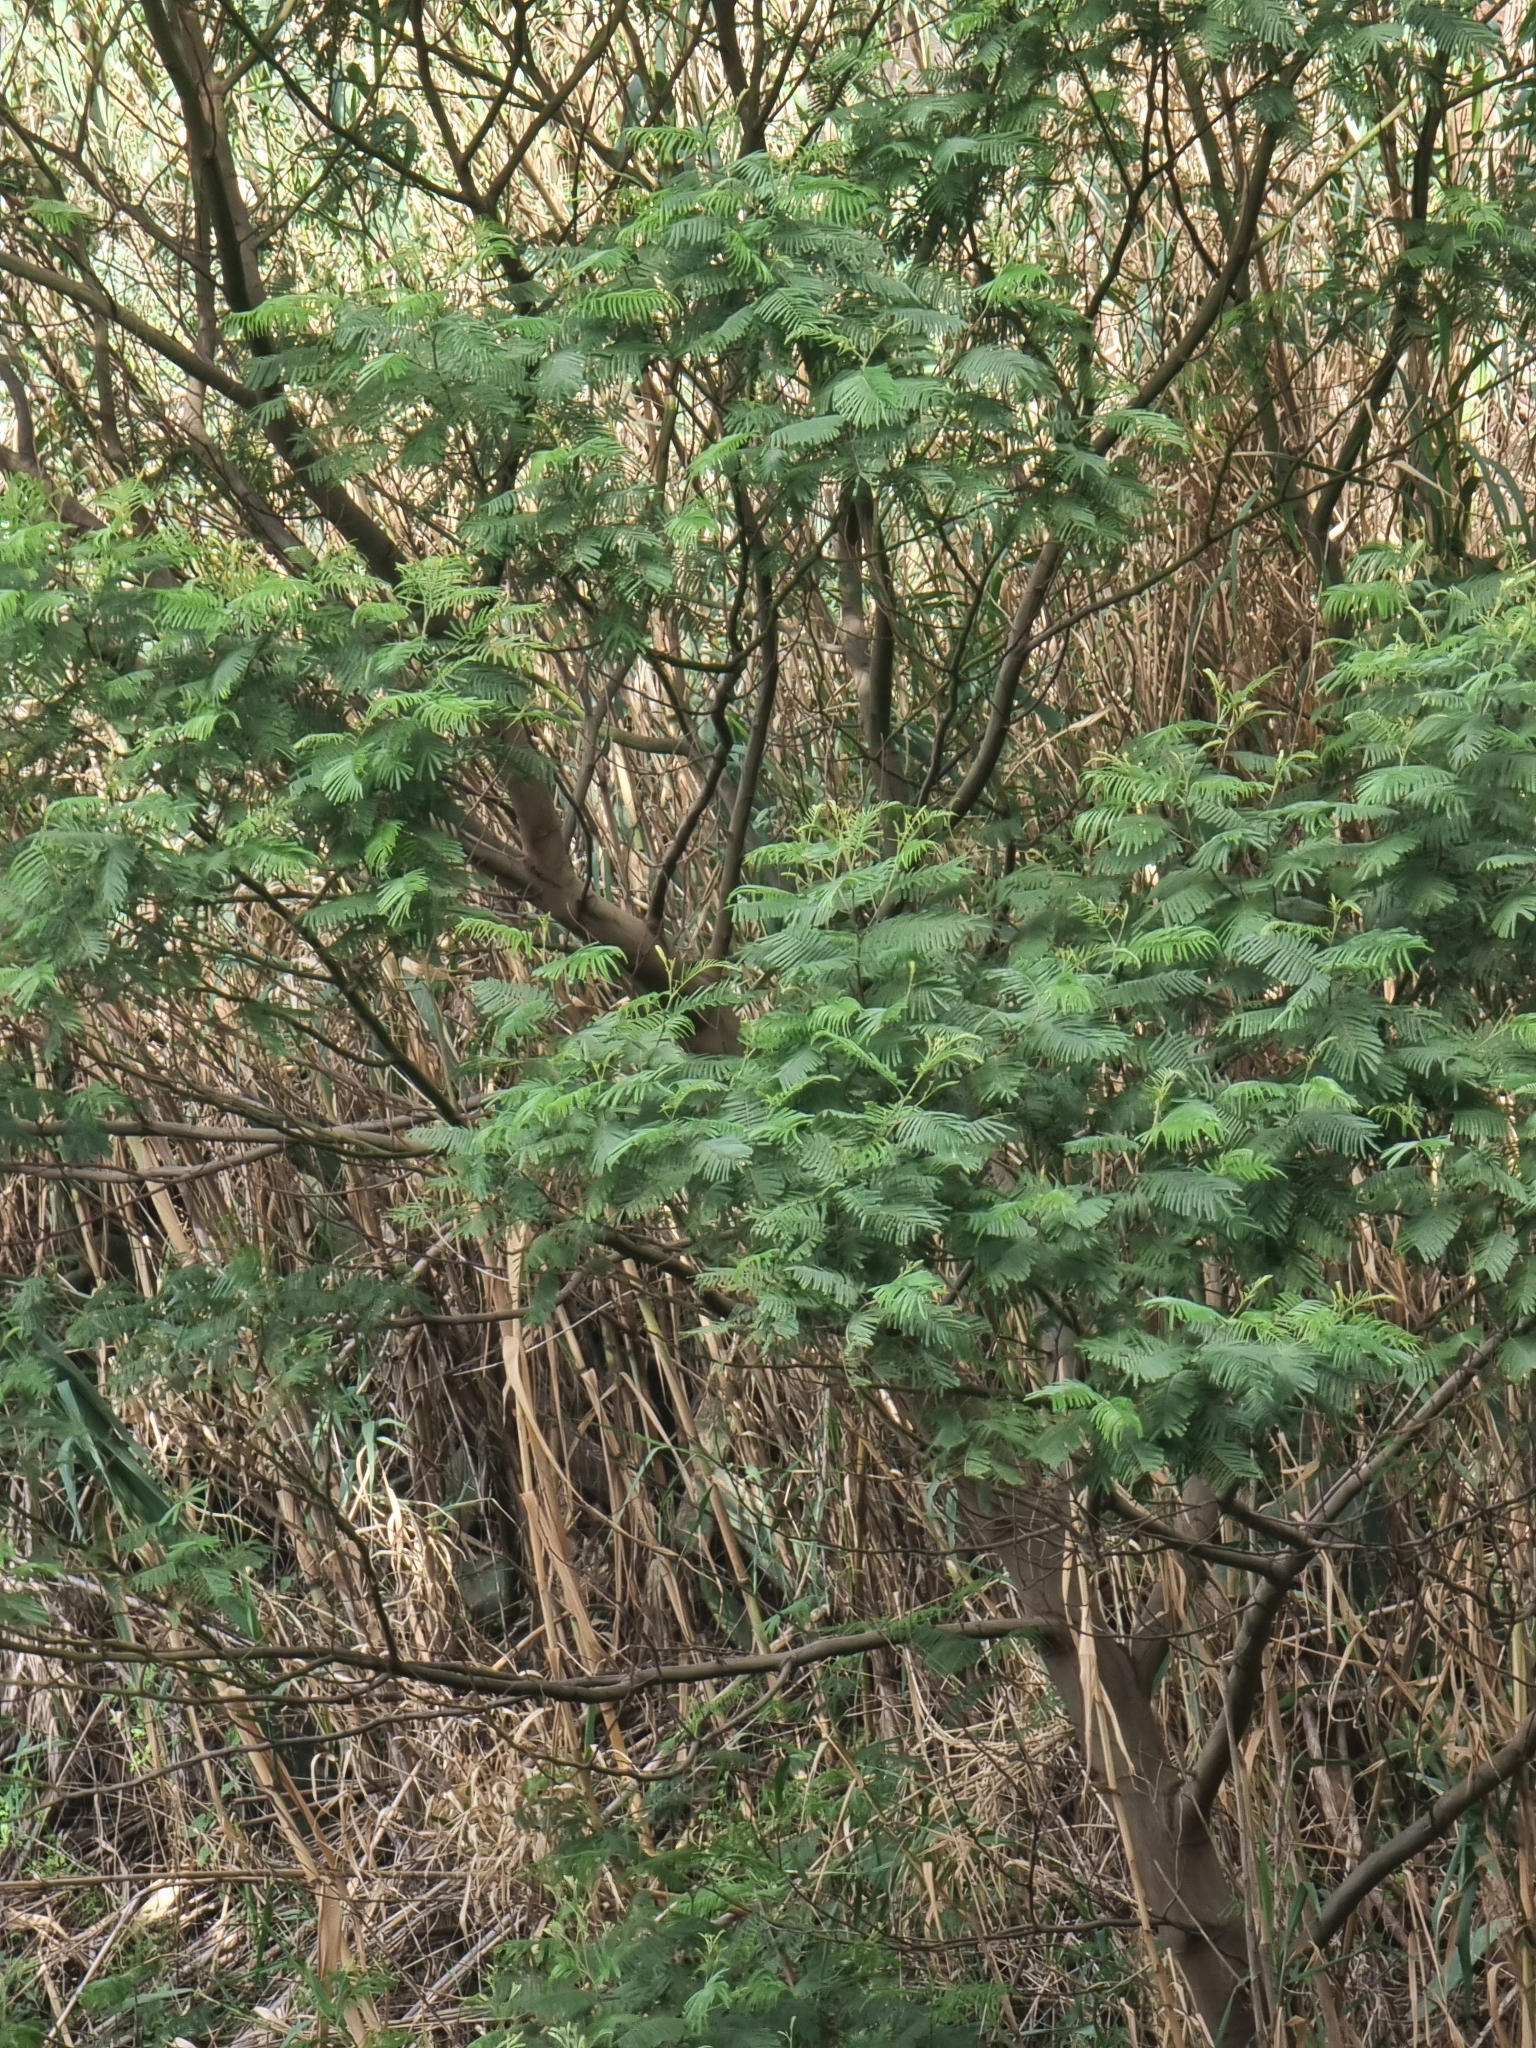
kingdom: Plantae
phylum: Tracheophyta
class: Magnoliopsida
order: Fabales
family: Fabaceae
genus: Acacia
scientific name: Acacia mearnsii
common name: Black wattle
